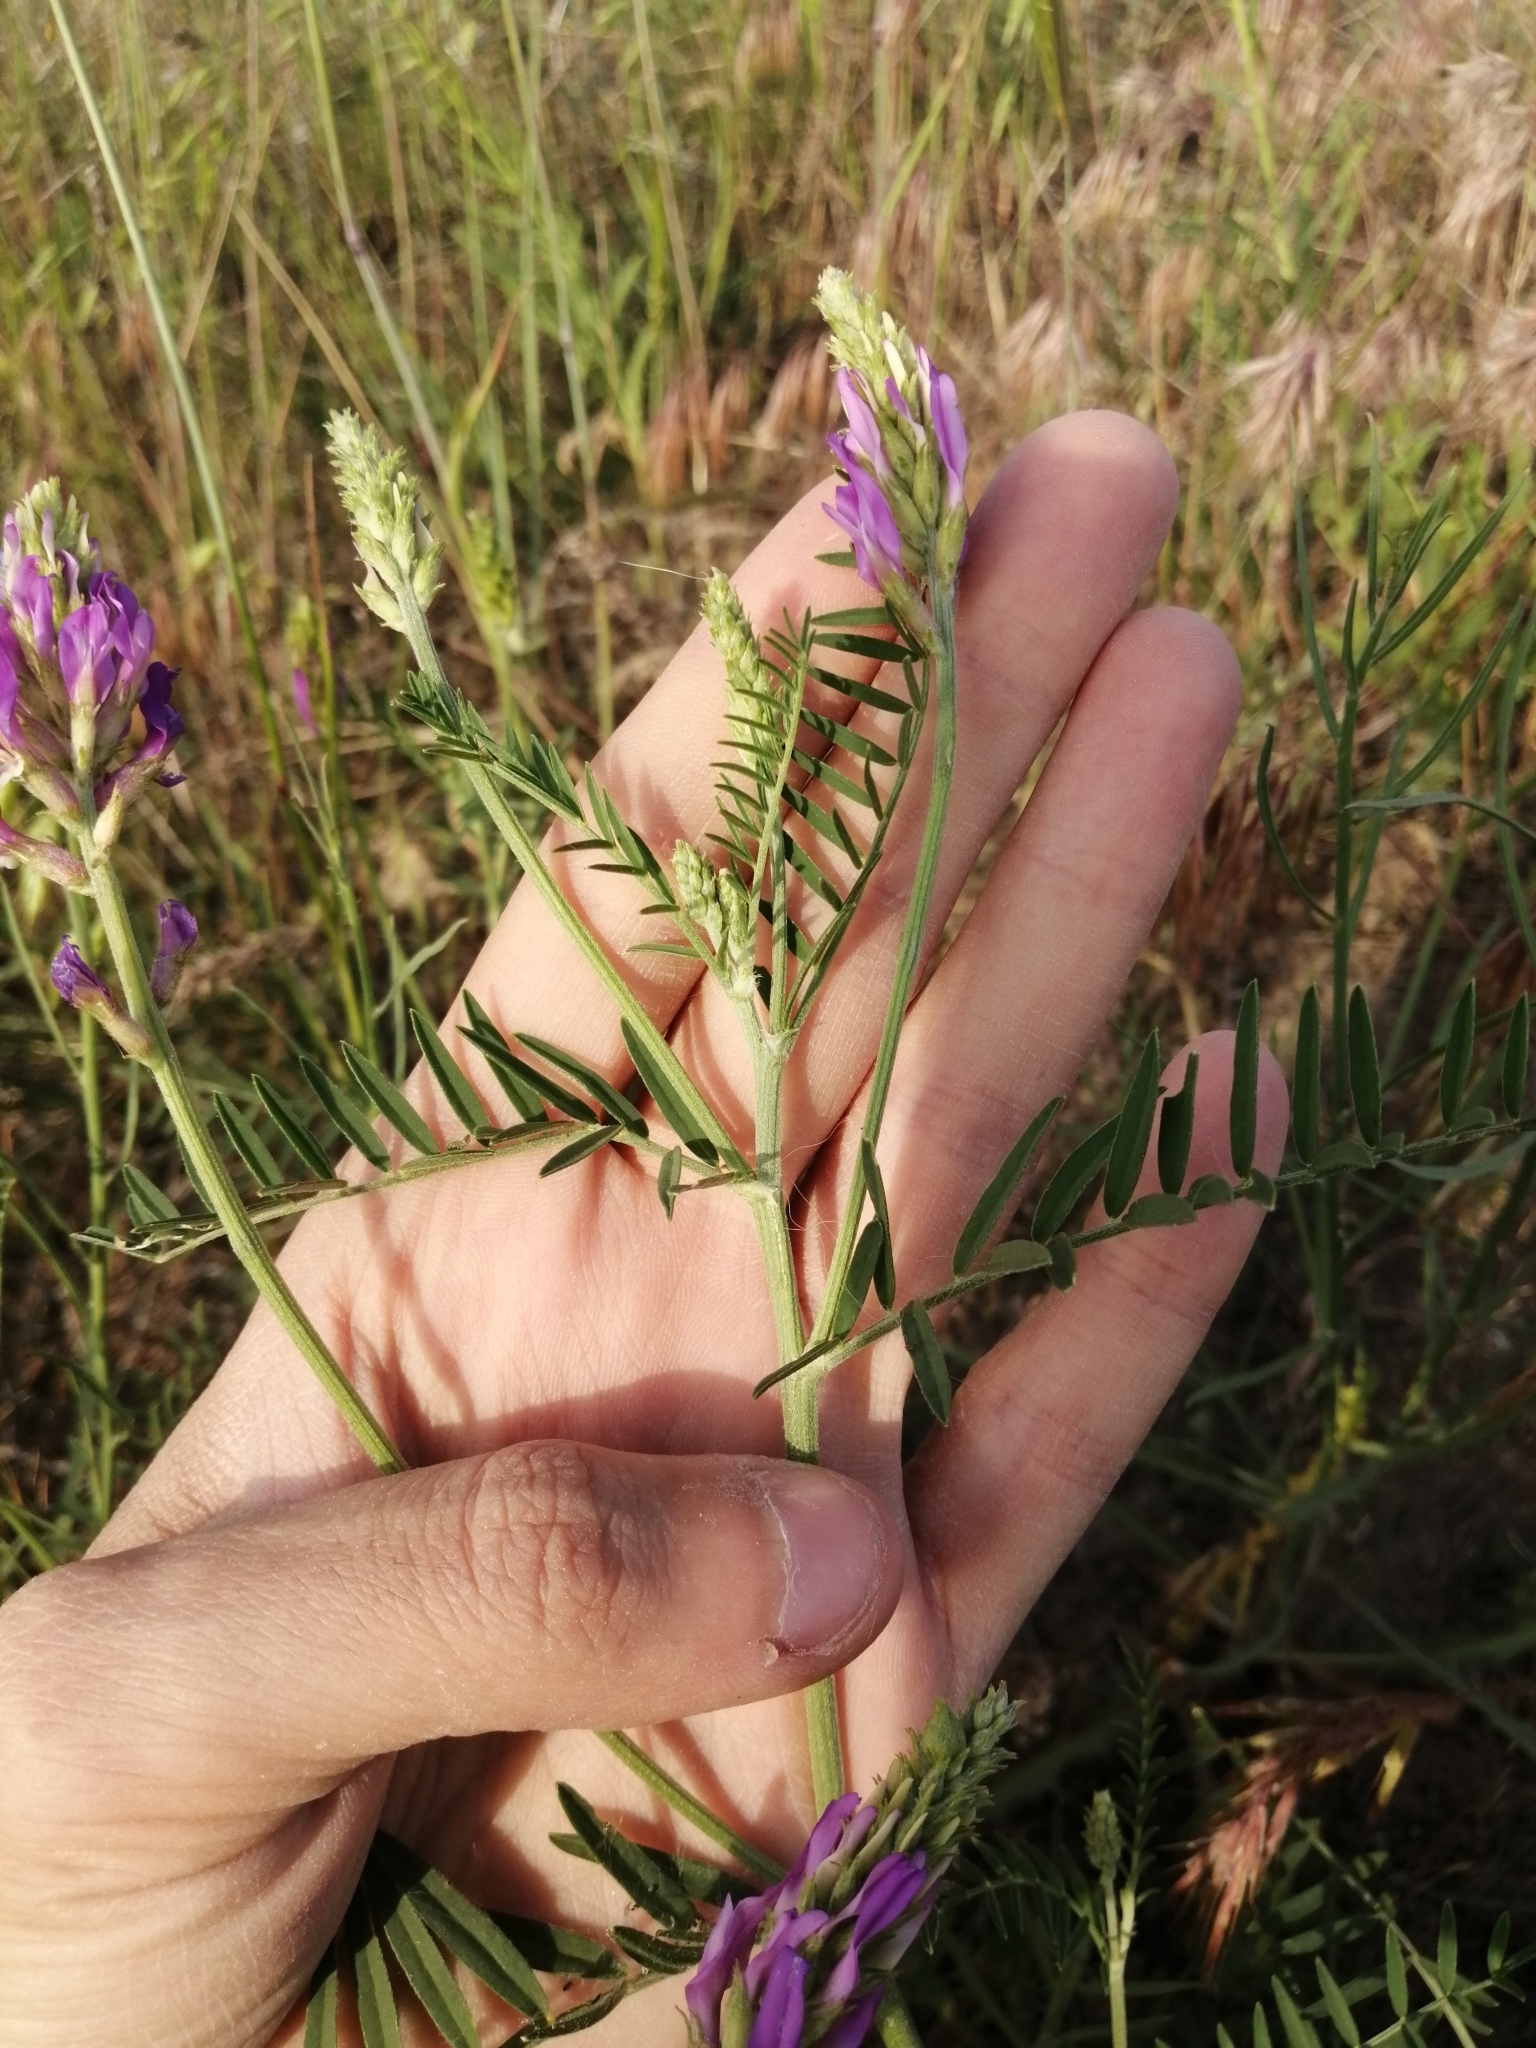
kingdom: Plantae
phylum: Tracheophyta
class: Magnoliopsida
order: Fabales
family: Fabaceae
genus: Astragalus
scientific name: Astragalus onobrychis
